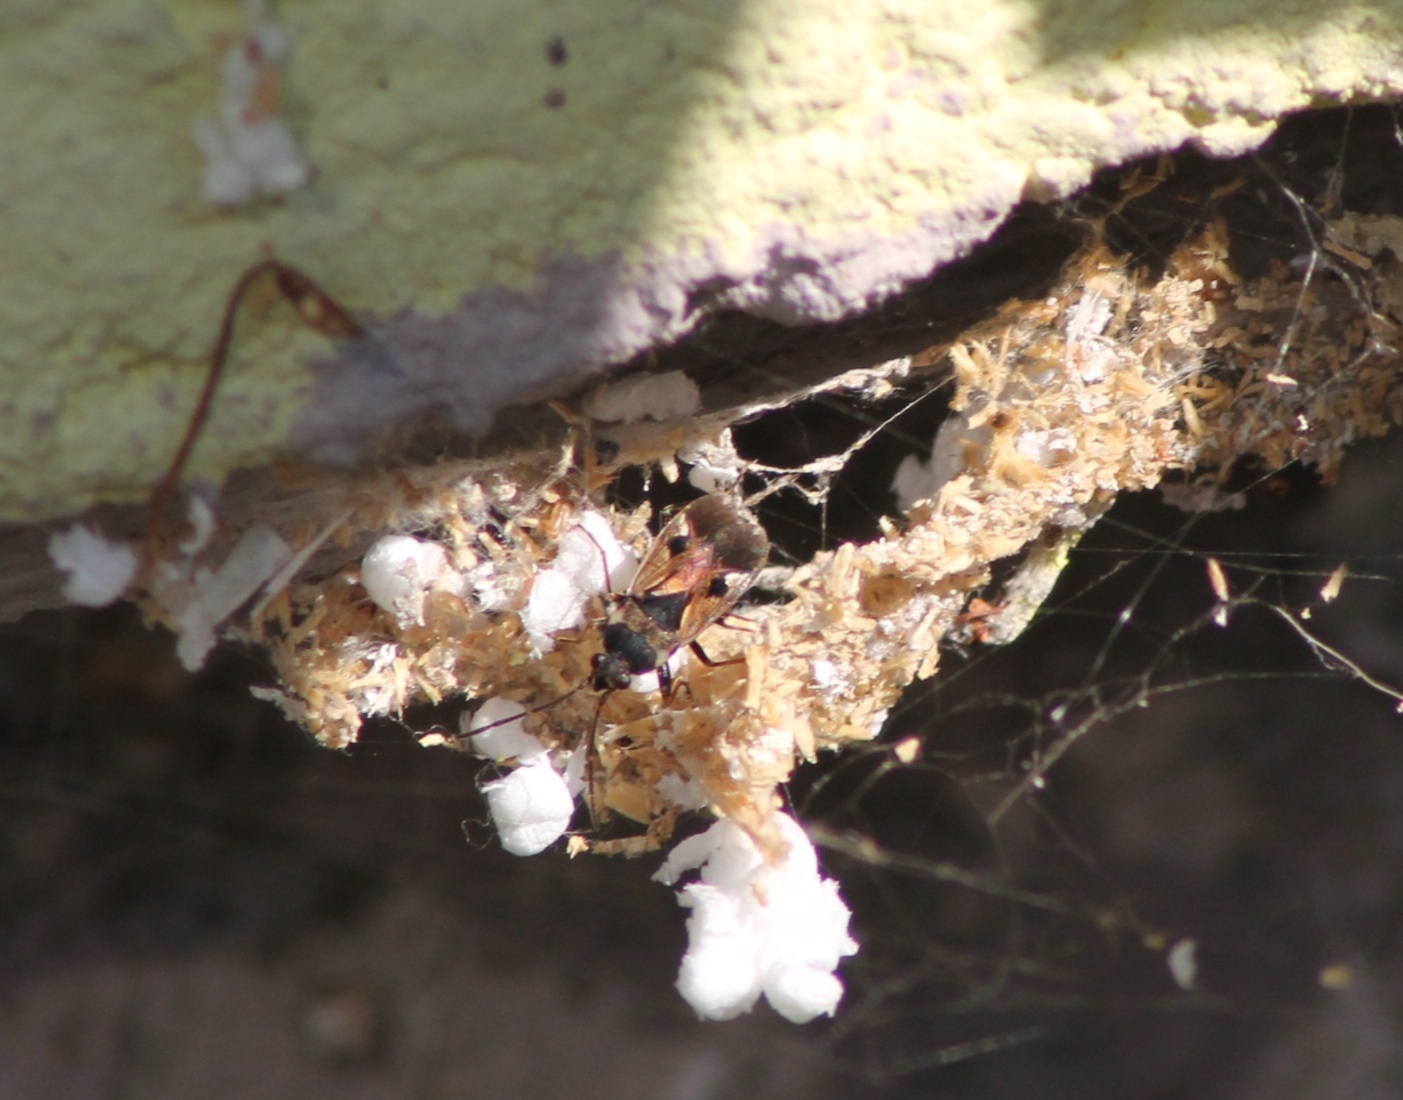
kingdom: Animalia
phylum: Arthropoda
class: Insecta
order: Hemiptera
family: Rhyparochromidae
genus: Rhyparochromus
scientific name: Rhyparochromus vulgaris
